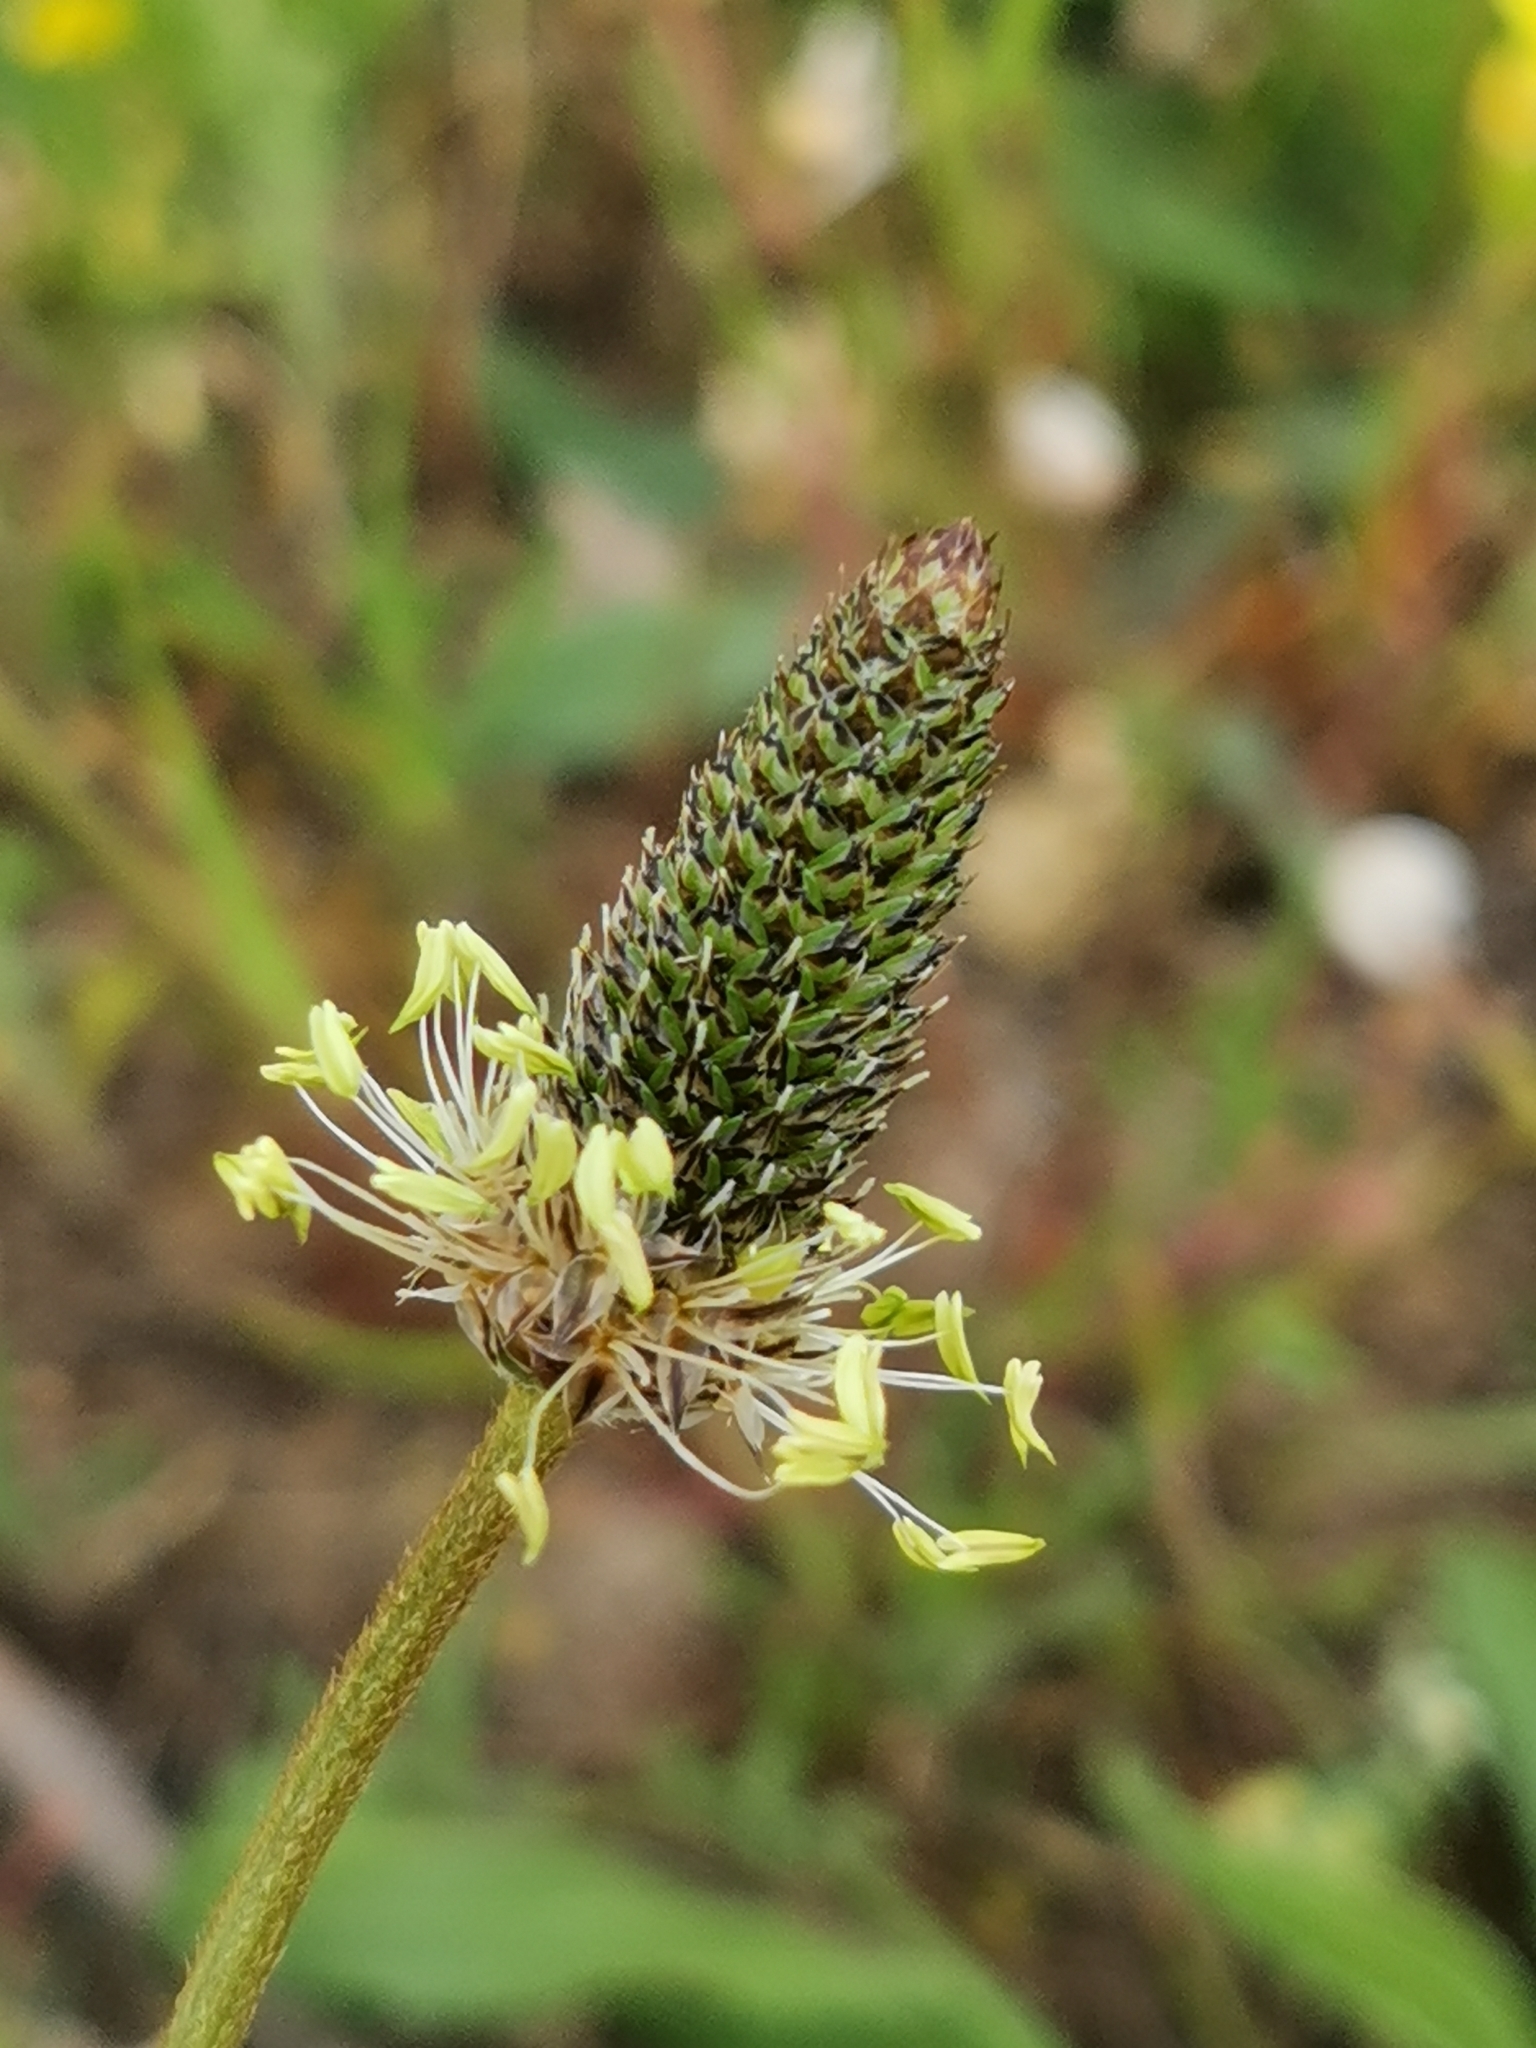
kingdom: Plantae
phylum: Tracheophyta
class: Magnoliopsida
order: Lamiales
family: Plantaginaceae
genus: Plantago
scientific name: Plantago lanceolata
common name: Ribwort plantain
